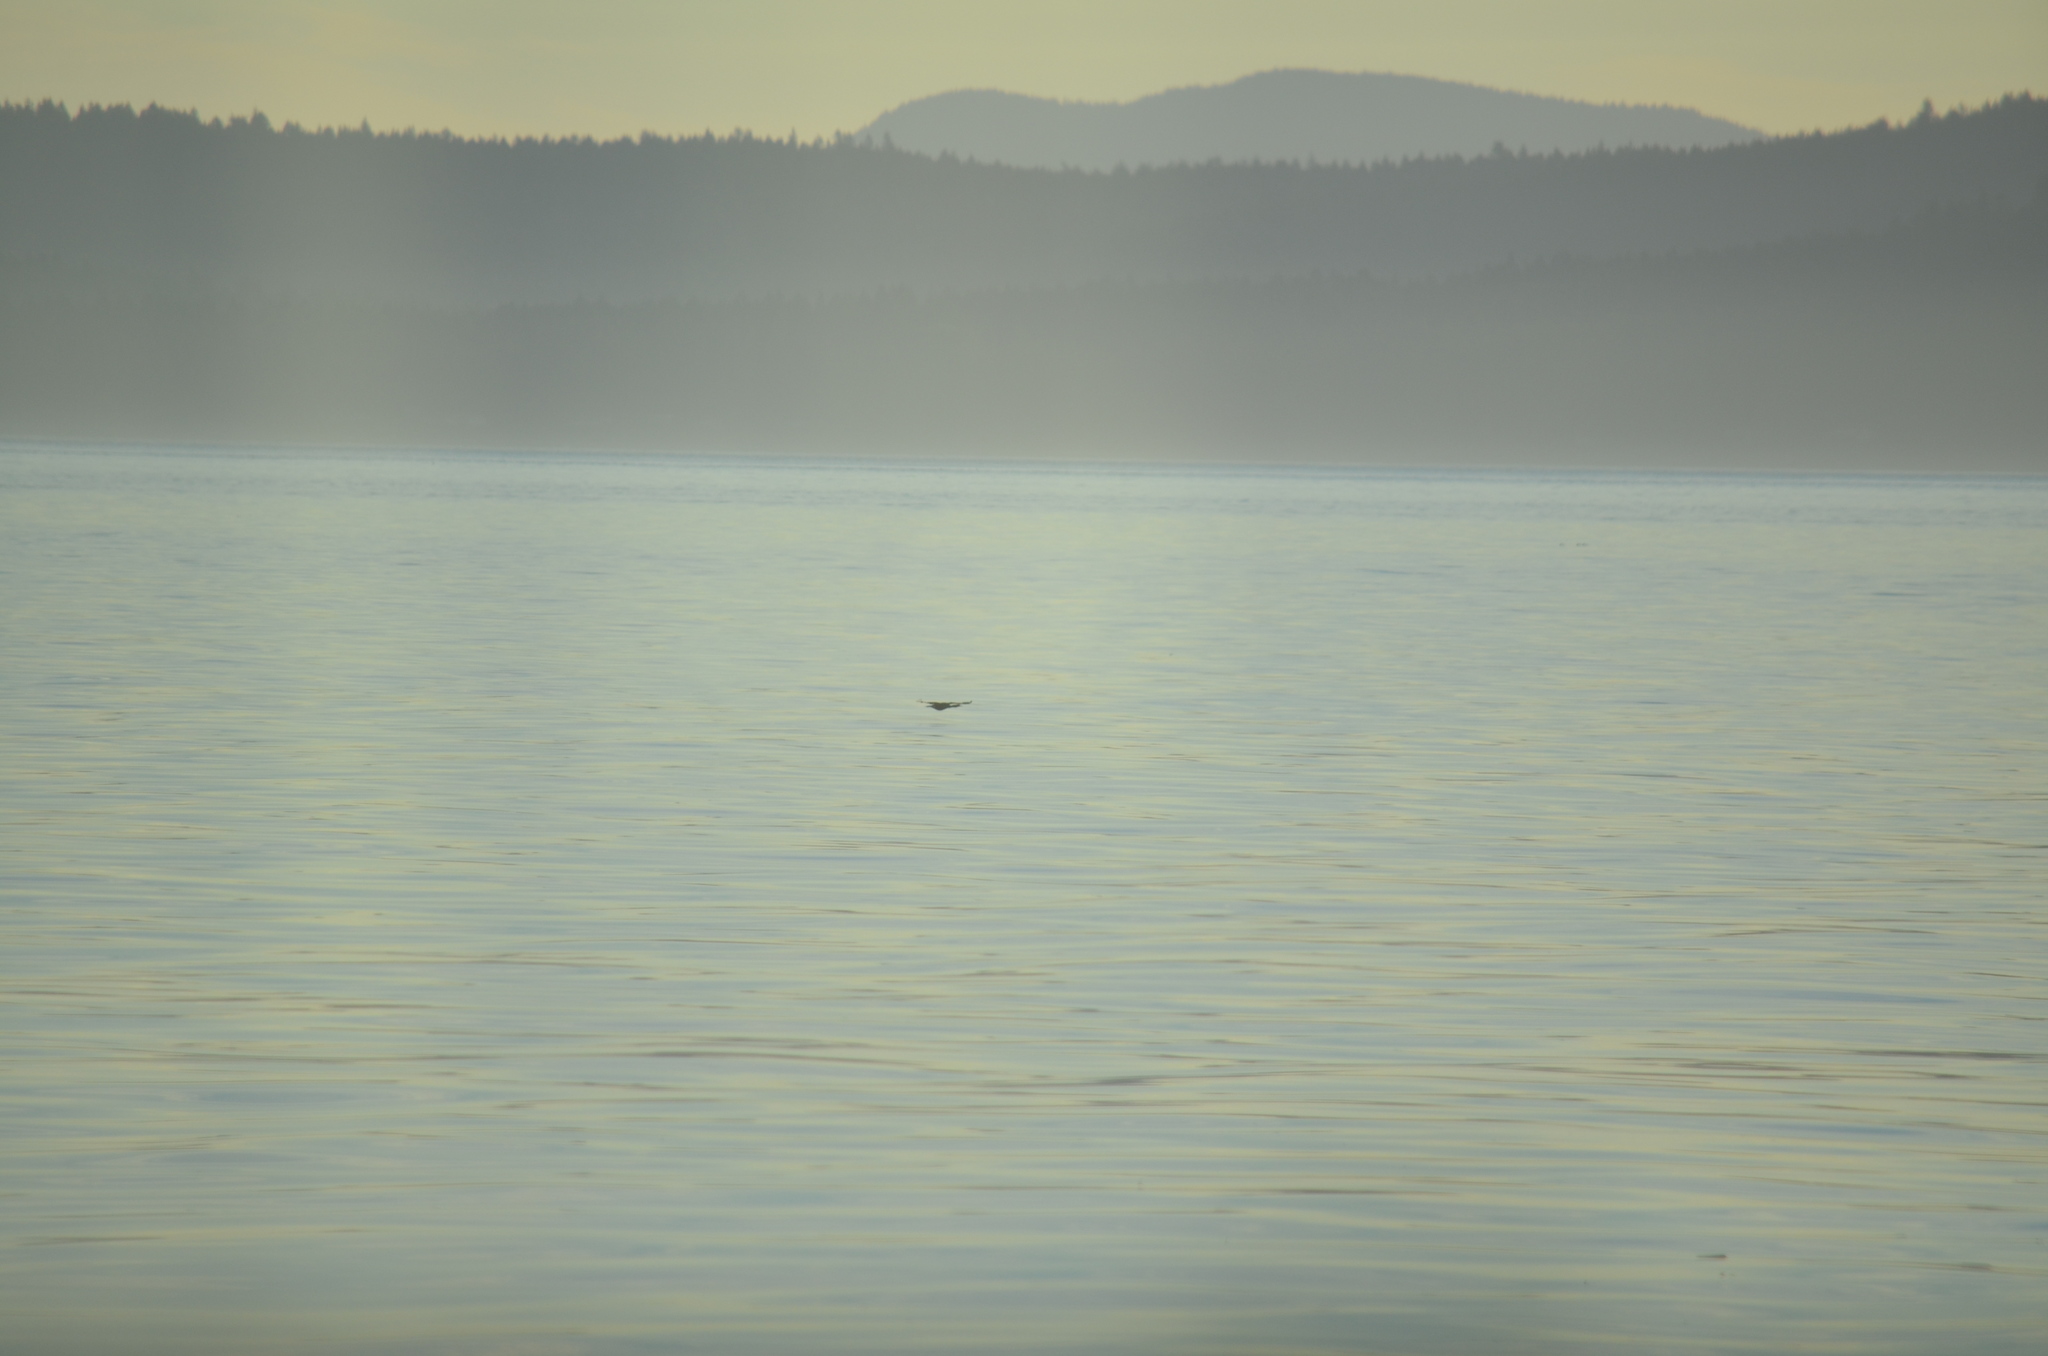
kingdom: Animalia
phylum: Chordata
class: Aves
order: Suliformes
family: Phalacrocoracidae
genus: Phalacrocorax
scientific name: Phalacrocorax auritus
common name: Double-crested cormorant
